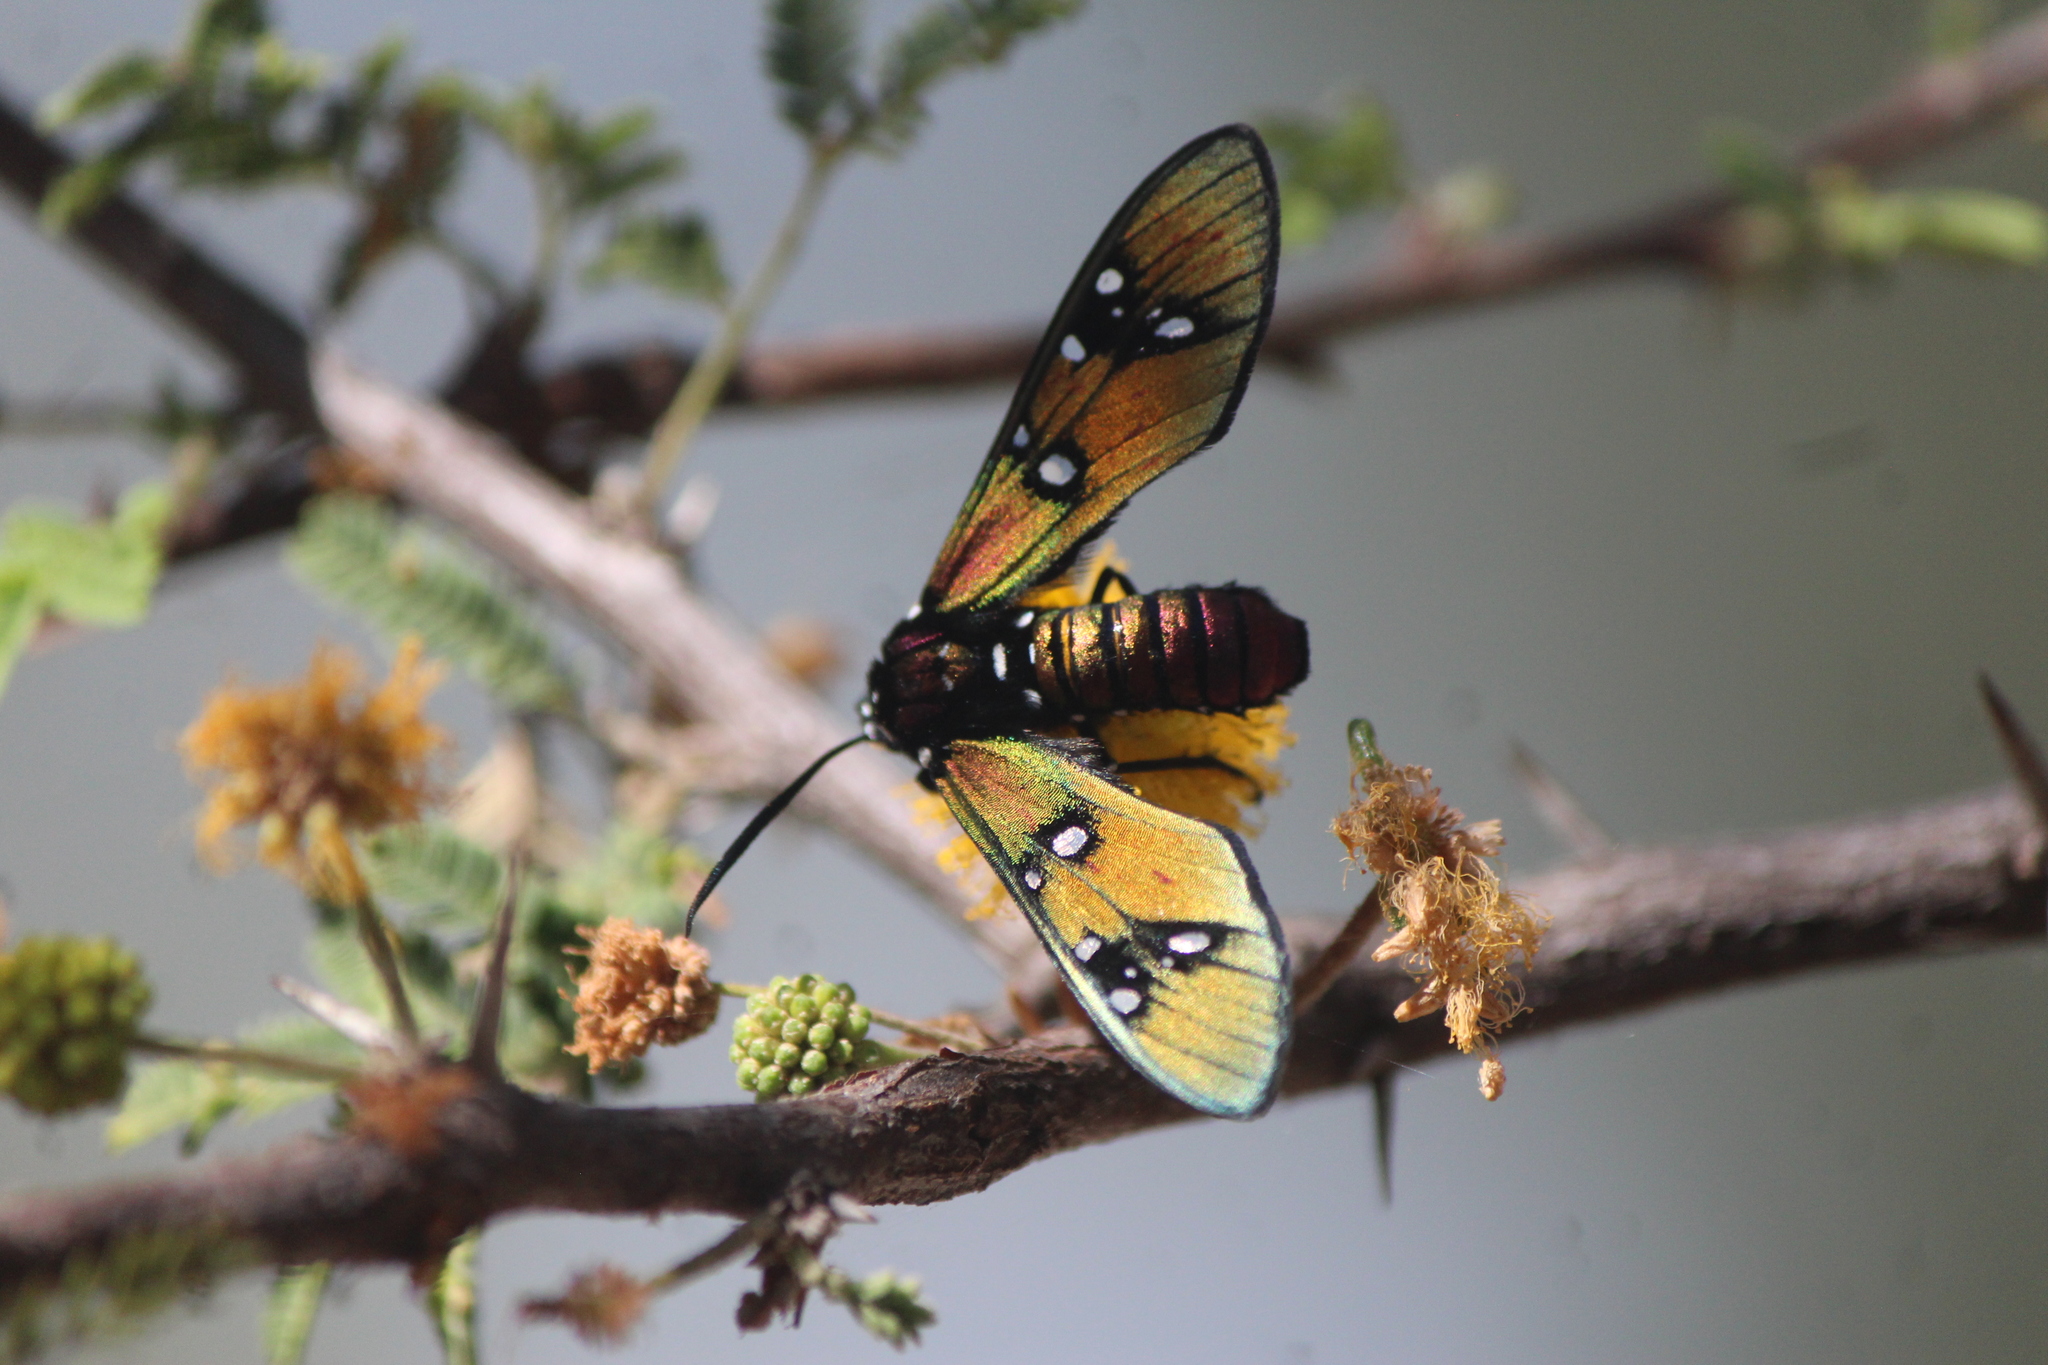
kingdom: Animalia
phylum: Arthropoda
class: Insecta
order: Lepidoptera
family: Erebidae
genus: Chrysocale
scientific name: Chrysocale principalis
